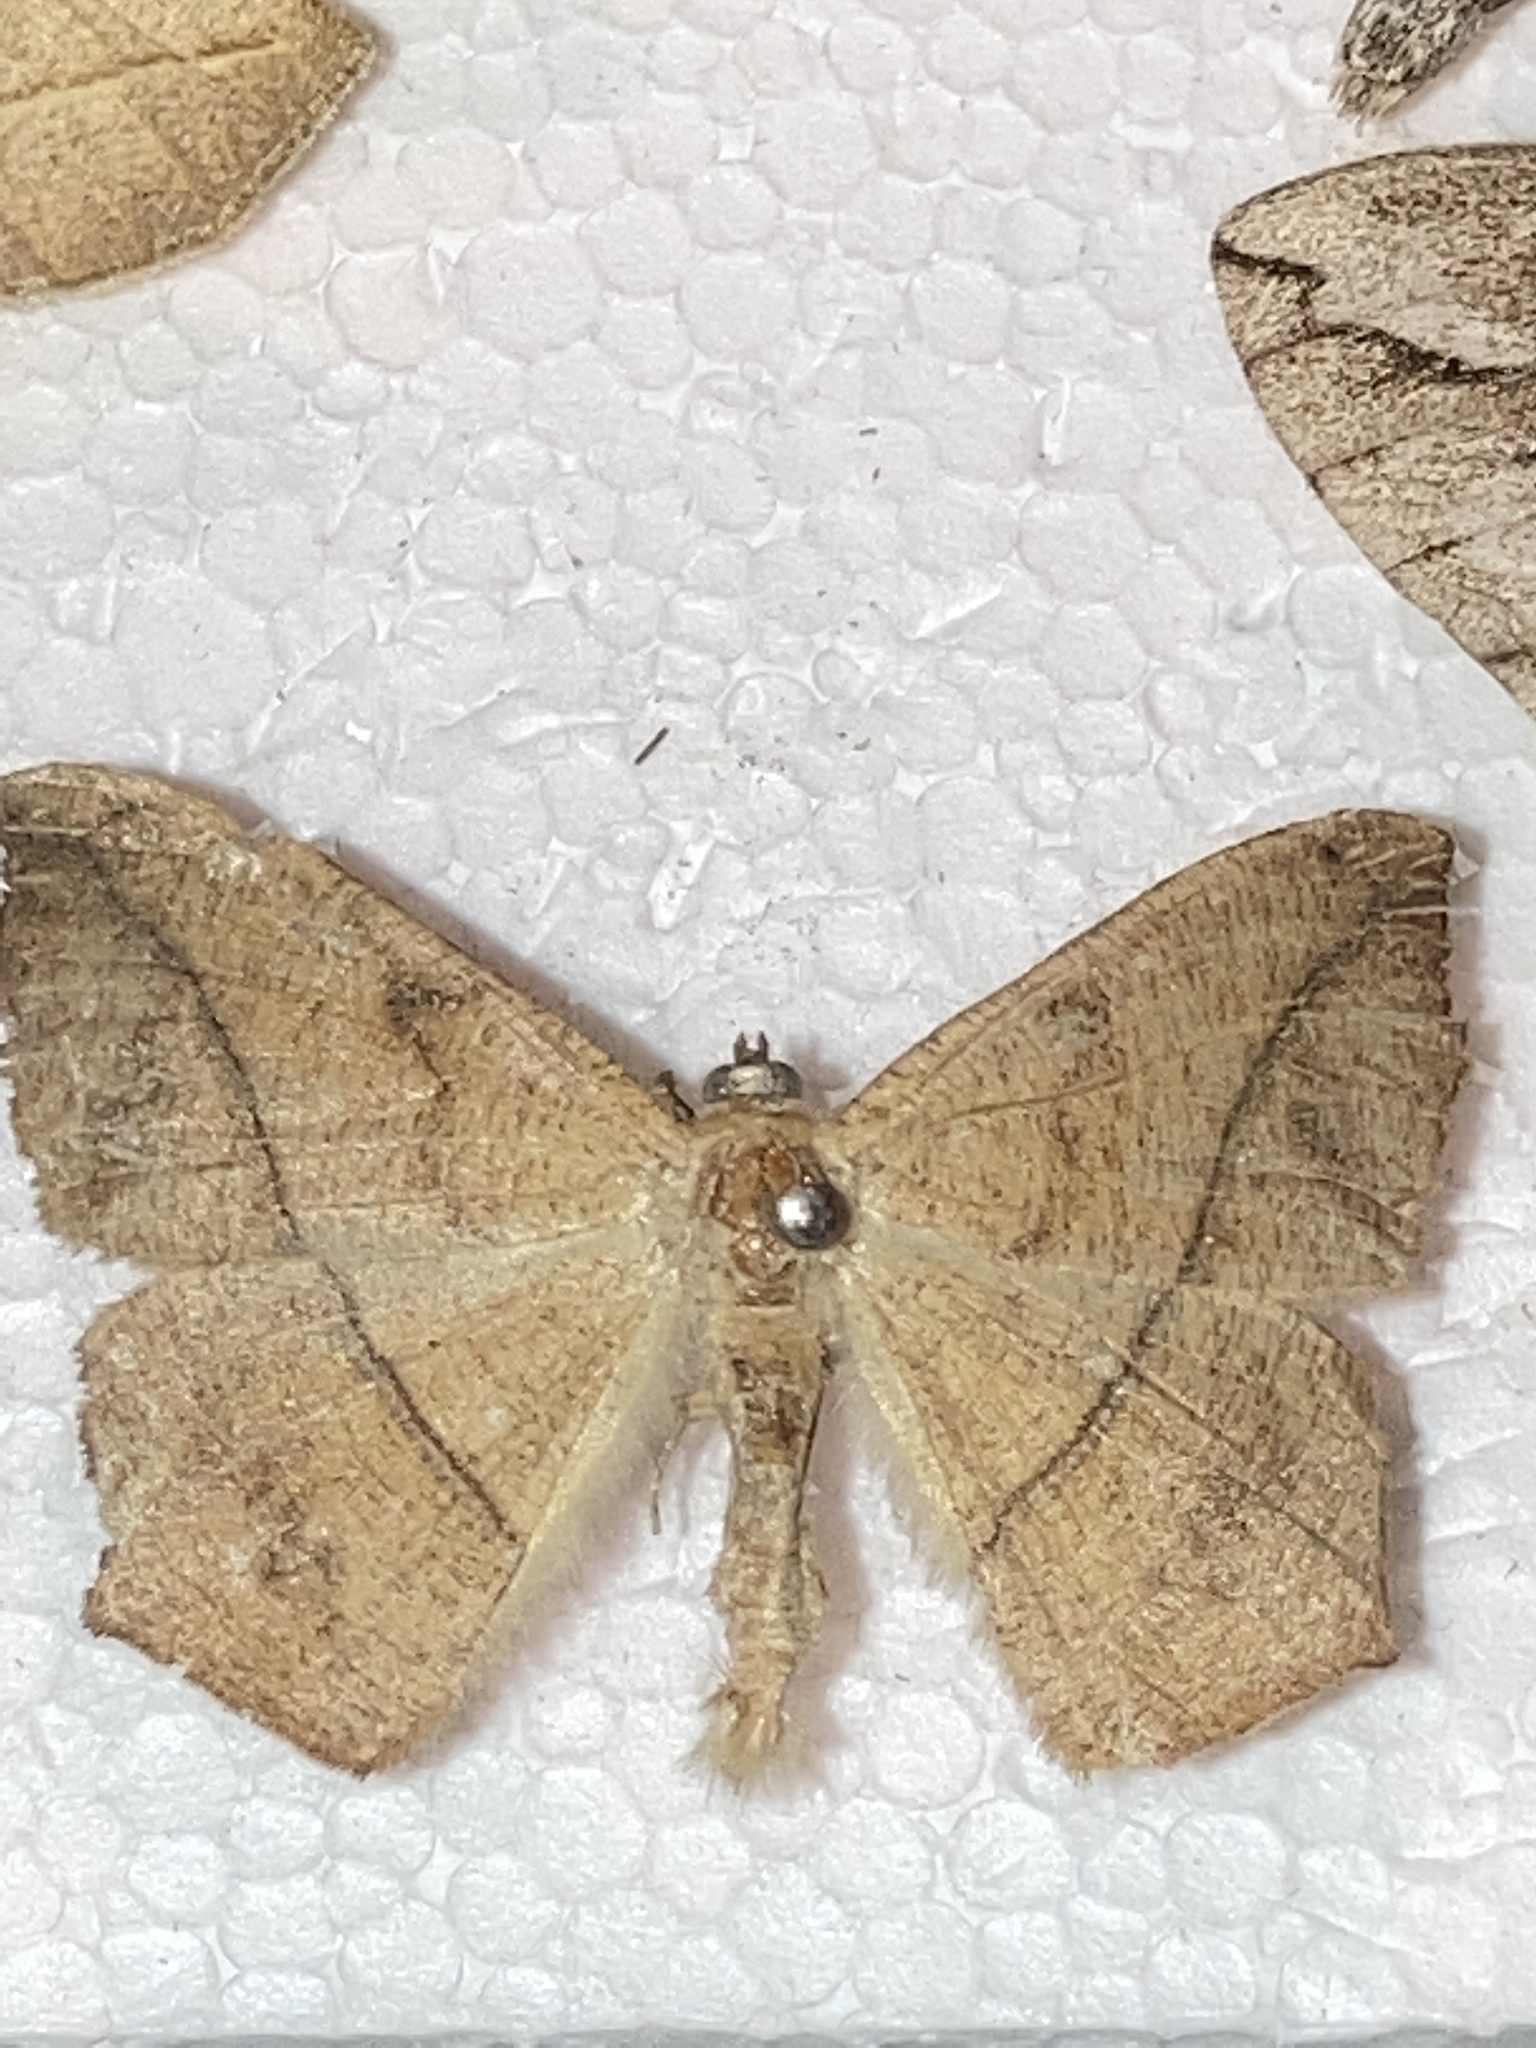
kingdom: Animalia
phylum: Arthropoda
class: Insecta
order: Lepidoptera
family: Geometridae
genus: Prochoerodes
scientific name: Prochoerodes lineola
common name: Large maple spanworm
